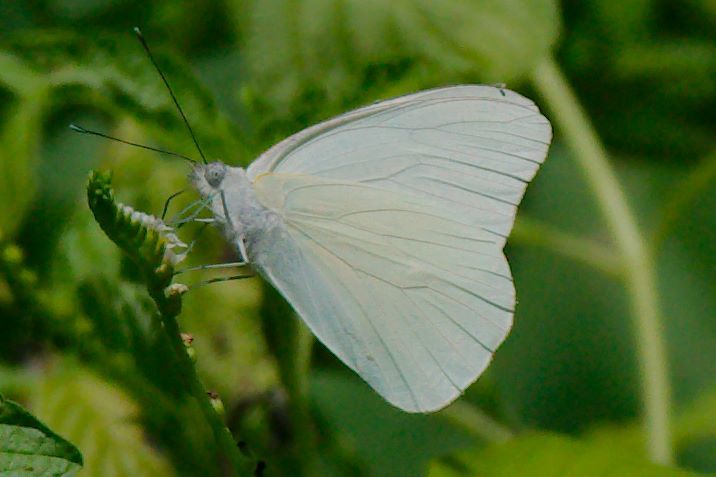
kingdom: Animalia
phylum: Arthropoda
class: Insecta
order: Lepidoptera
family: Pieridae
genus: Ascia
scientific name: Ascia monuste
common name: Great southern white
